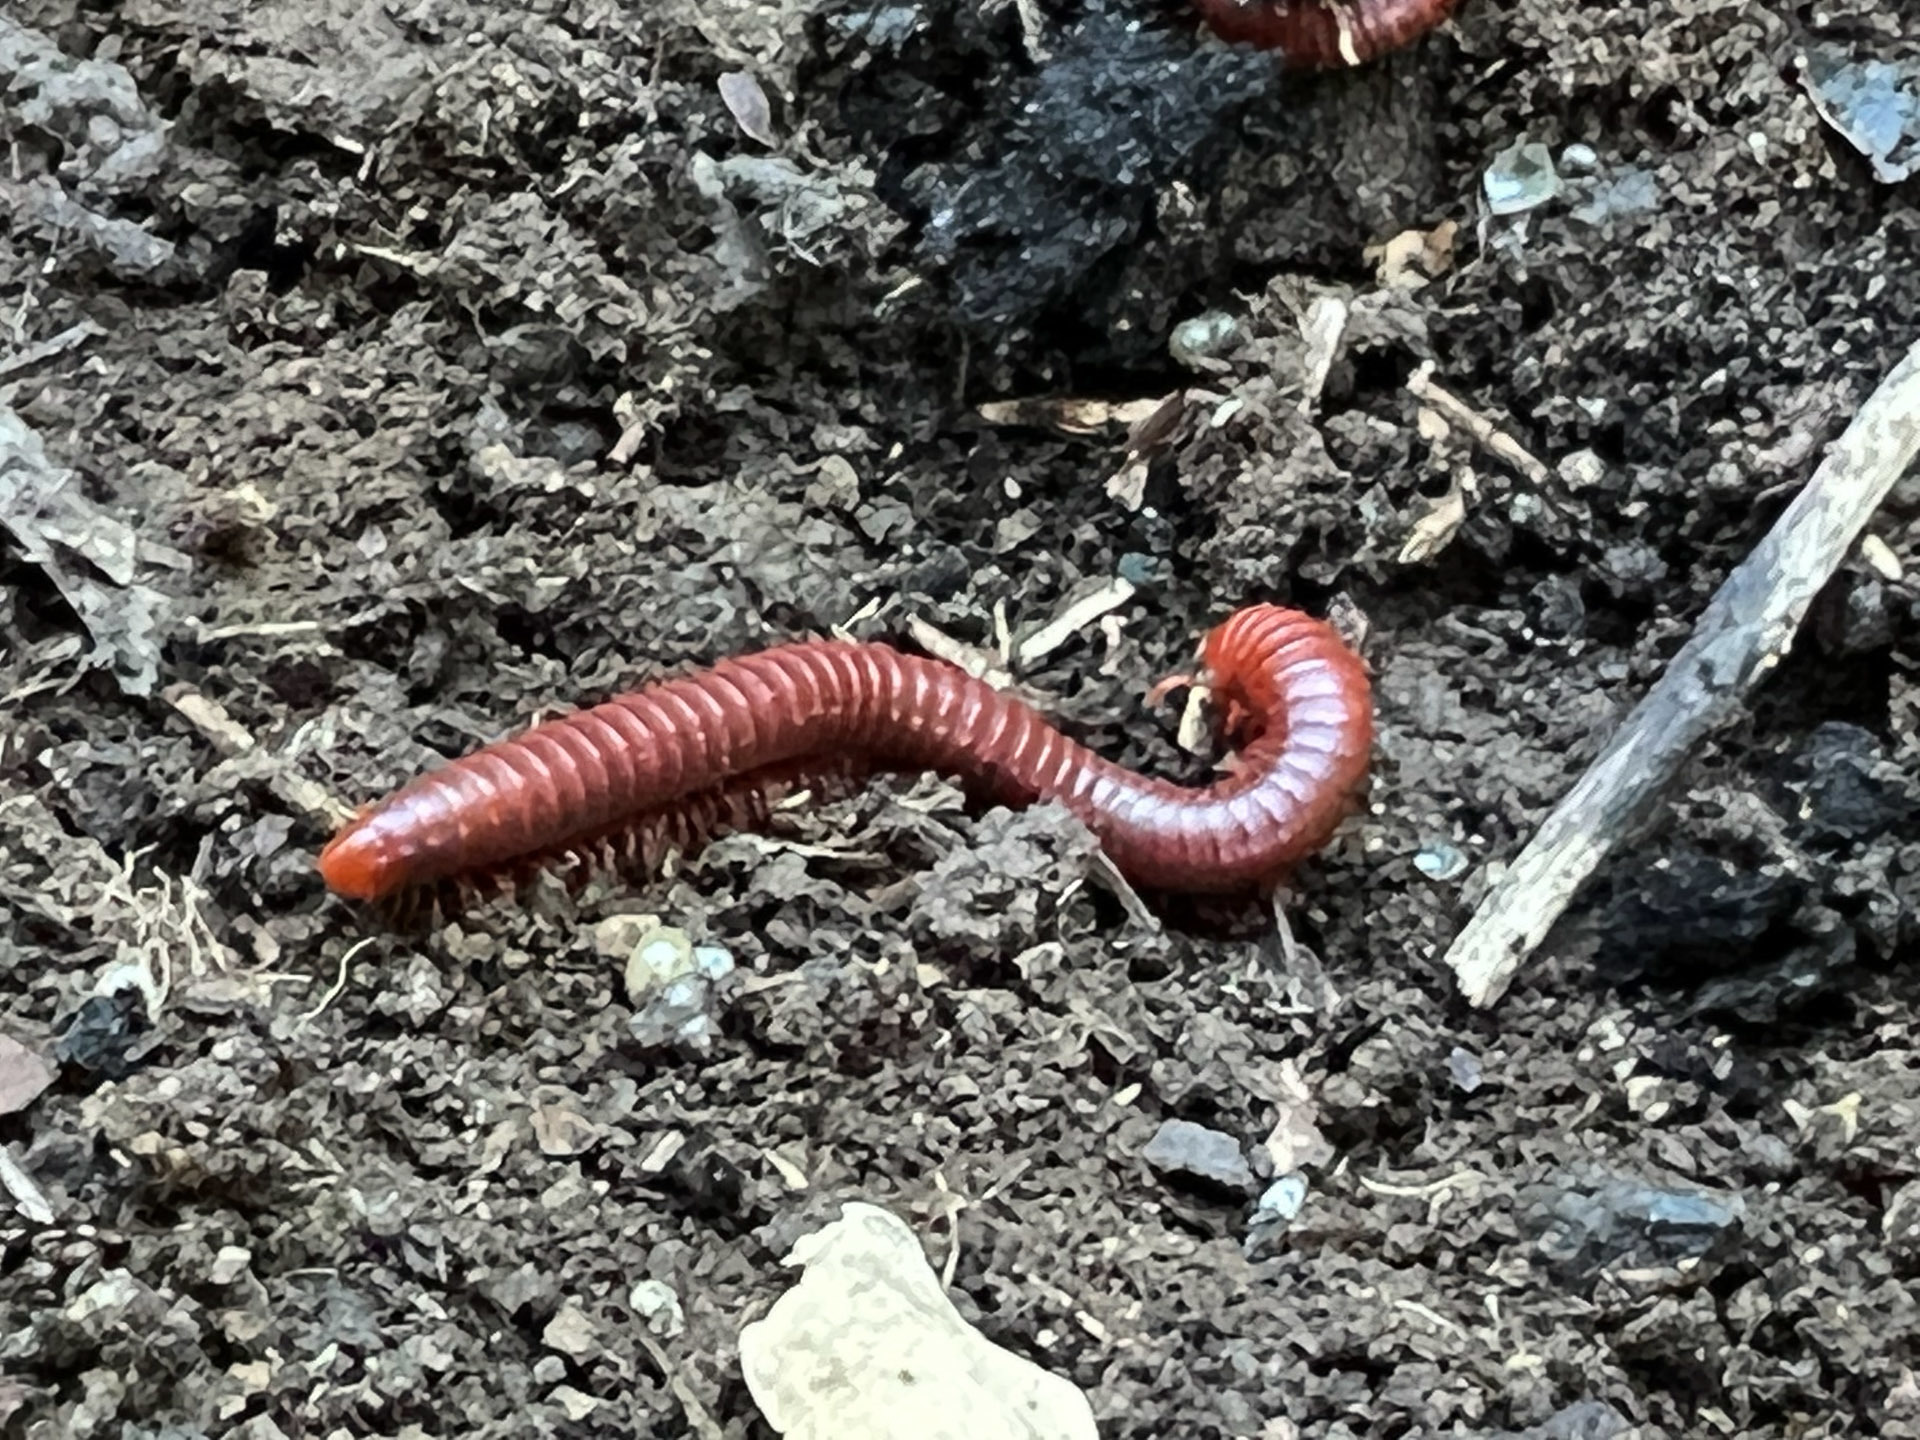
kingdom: Animalia
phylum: Arthropoda
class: Diplopoda
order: Spirobolida
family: Pachybolidae
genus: Trigoniulus
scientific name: Trigoniulus corallinus
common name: Millipede
